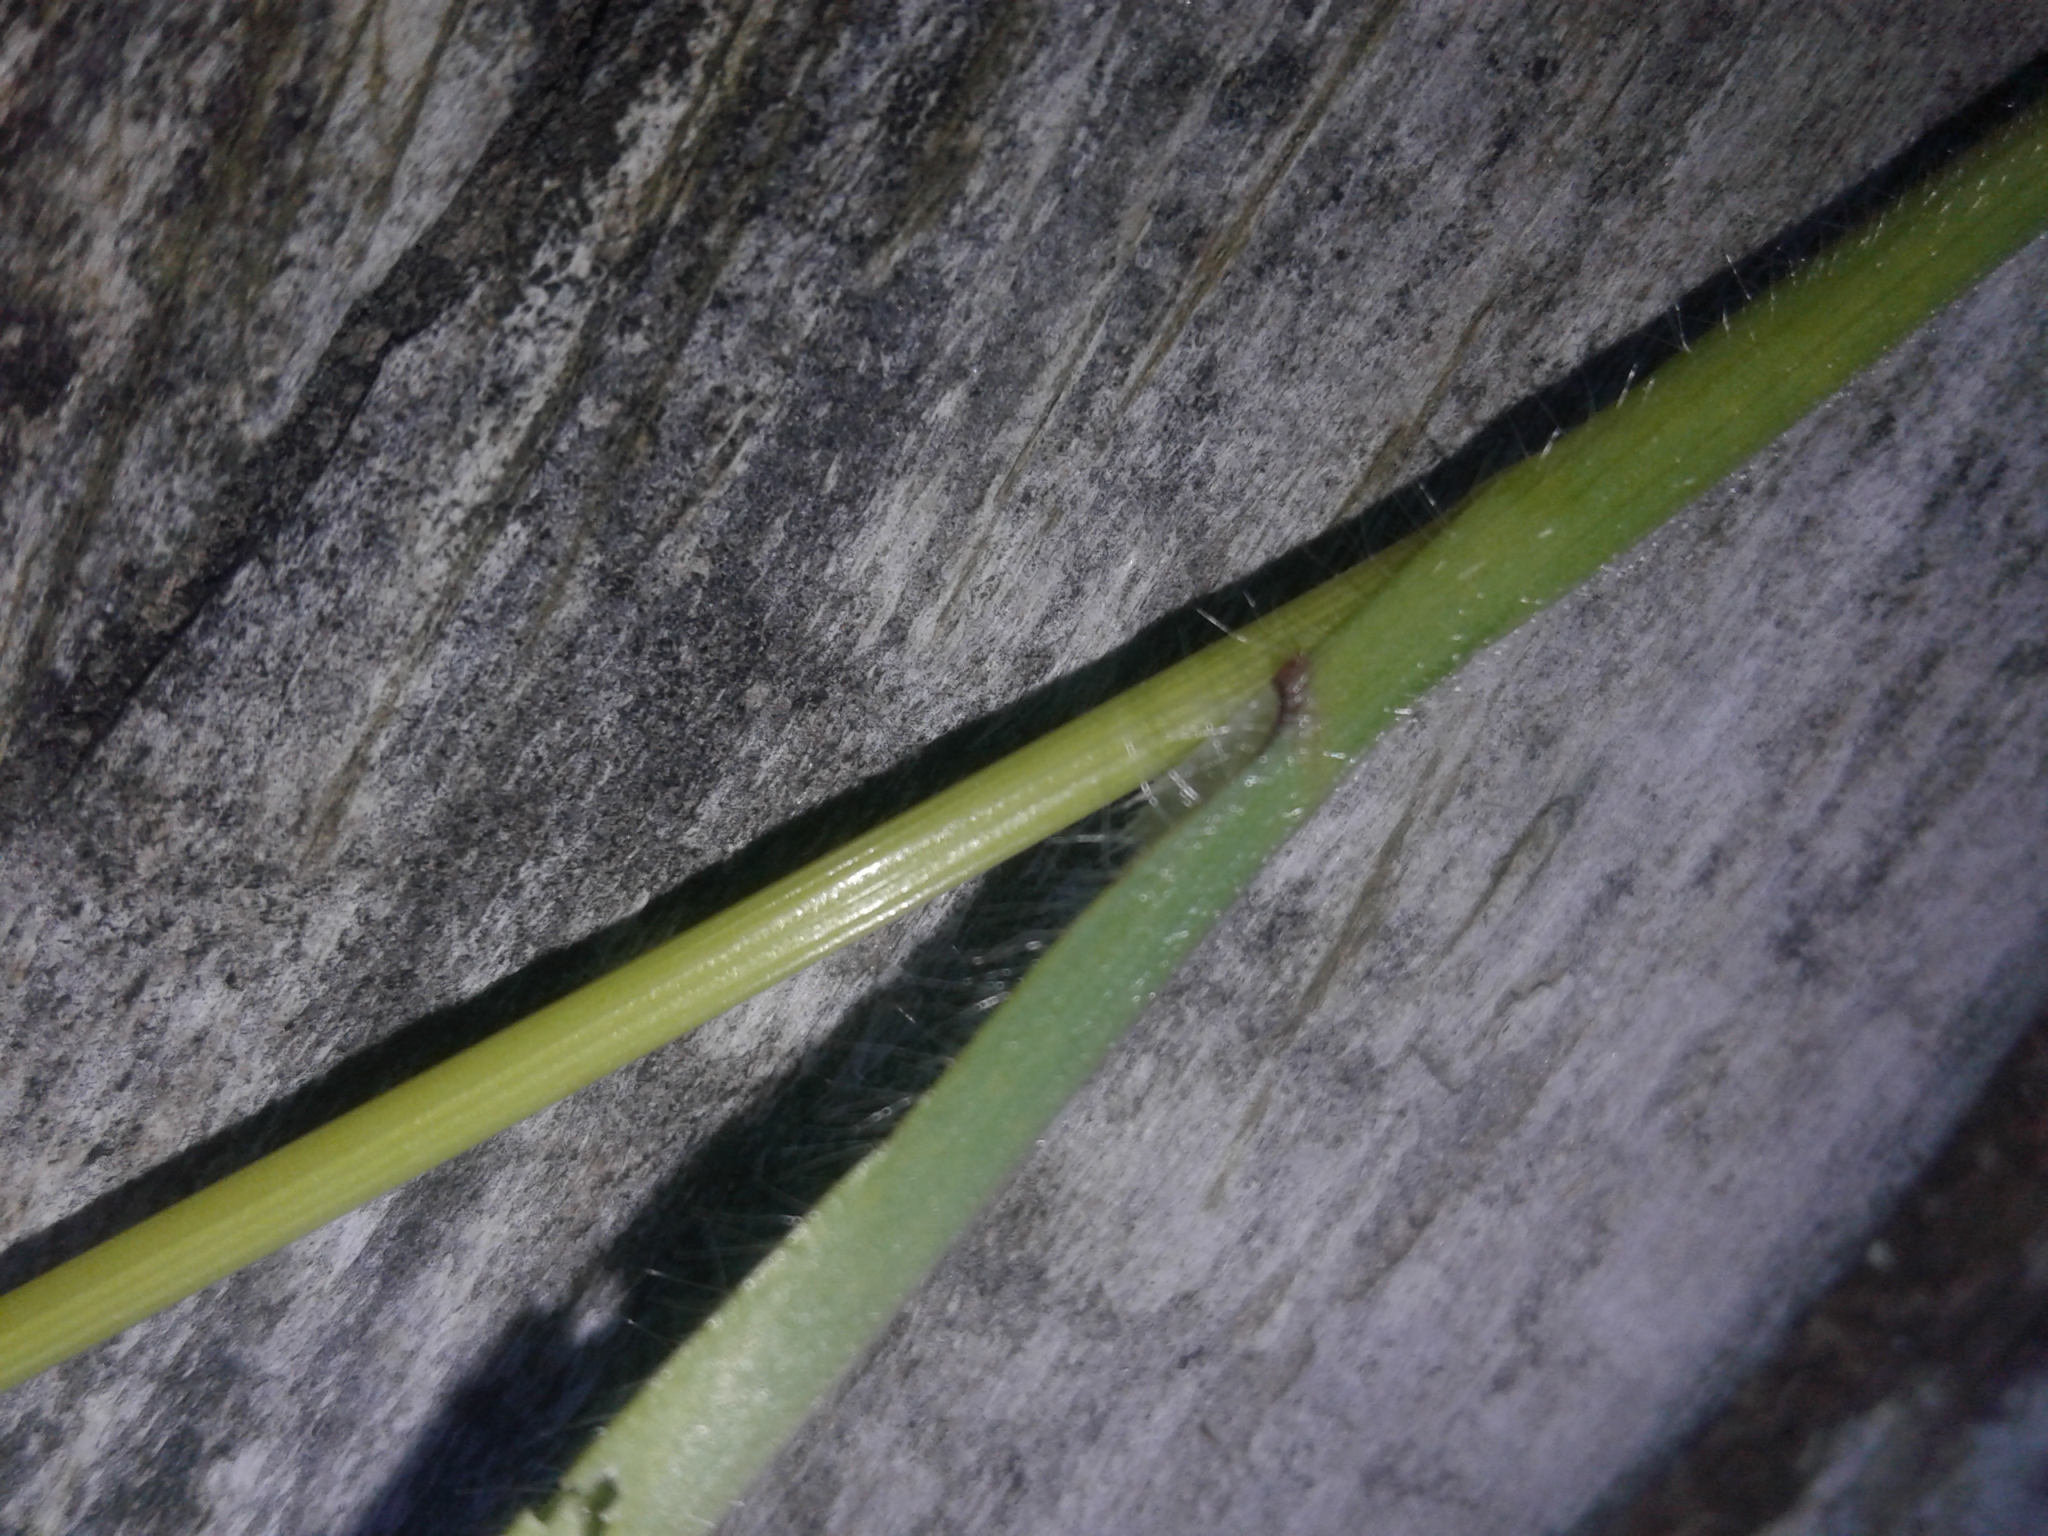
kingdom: Plantae
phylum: Tracheophyta
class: Liliopsida
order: Poales
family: Poaceae
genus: Bromus
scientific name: Bromus diandrus
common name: Ripgut brome
